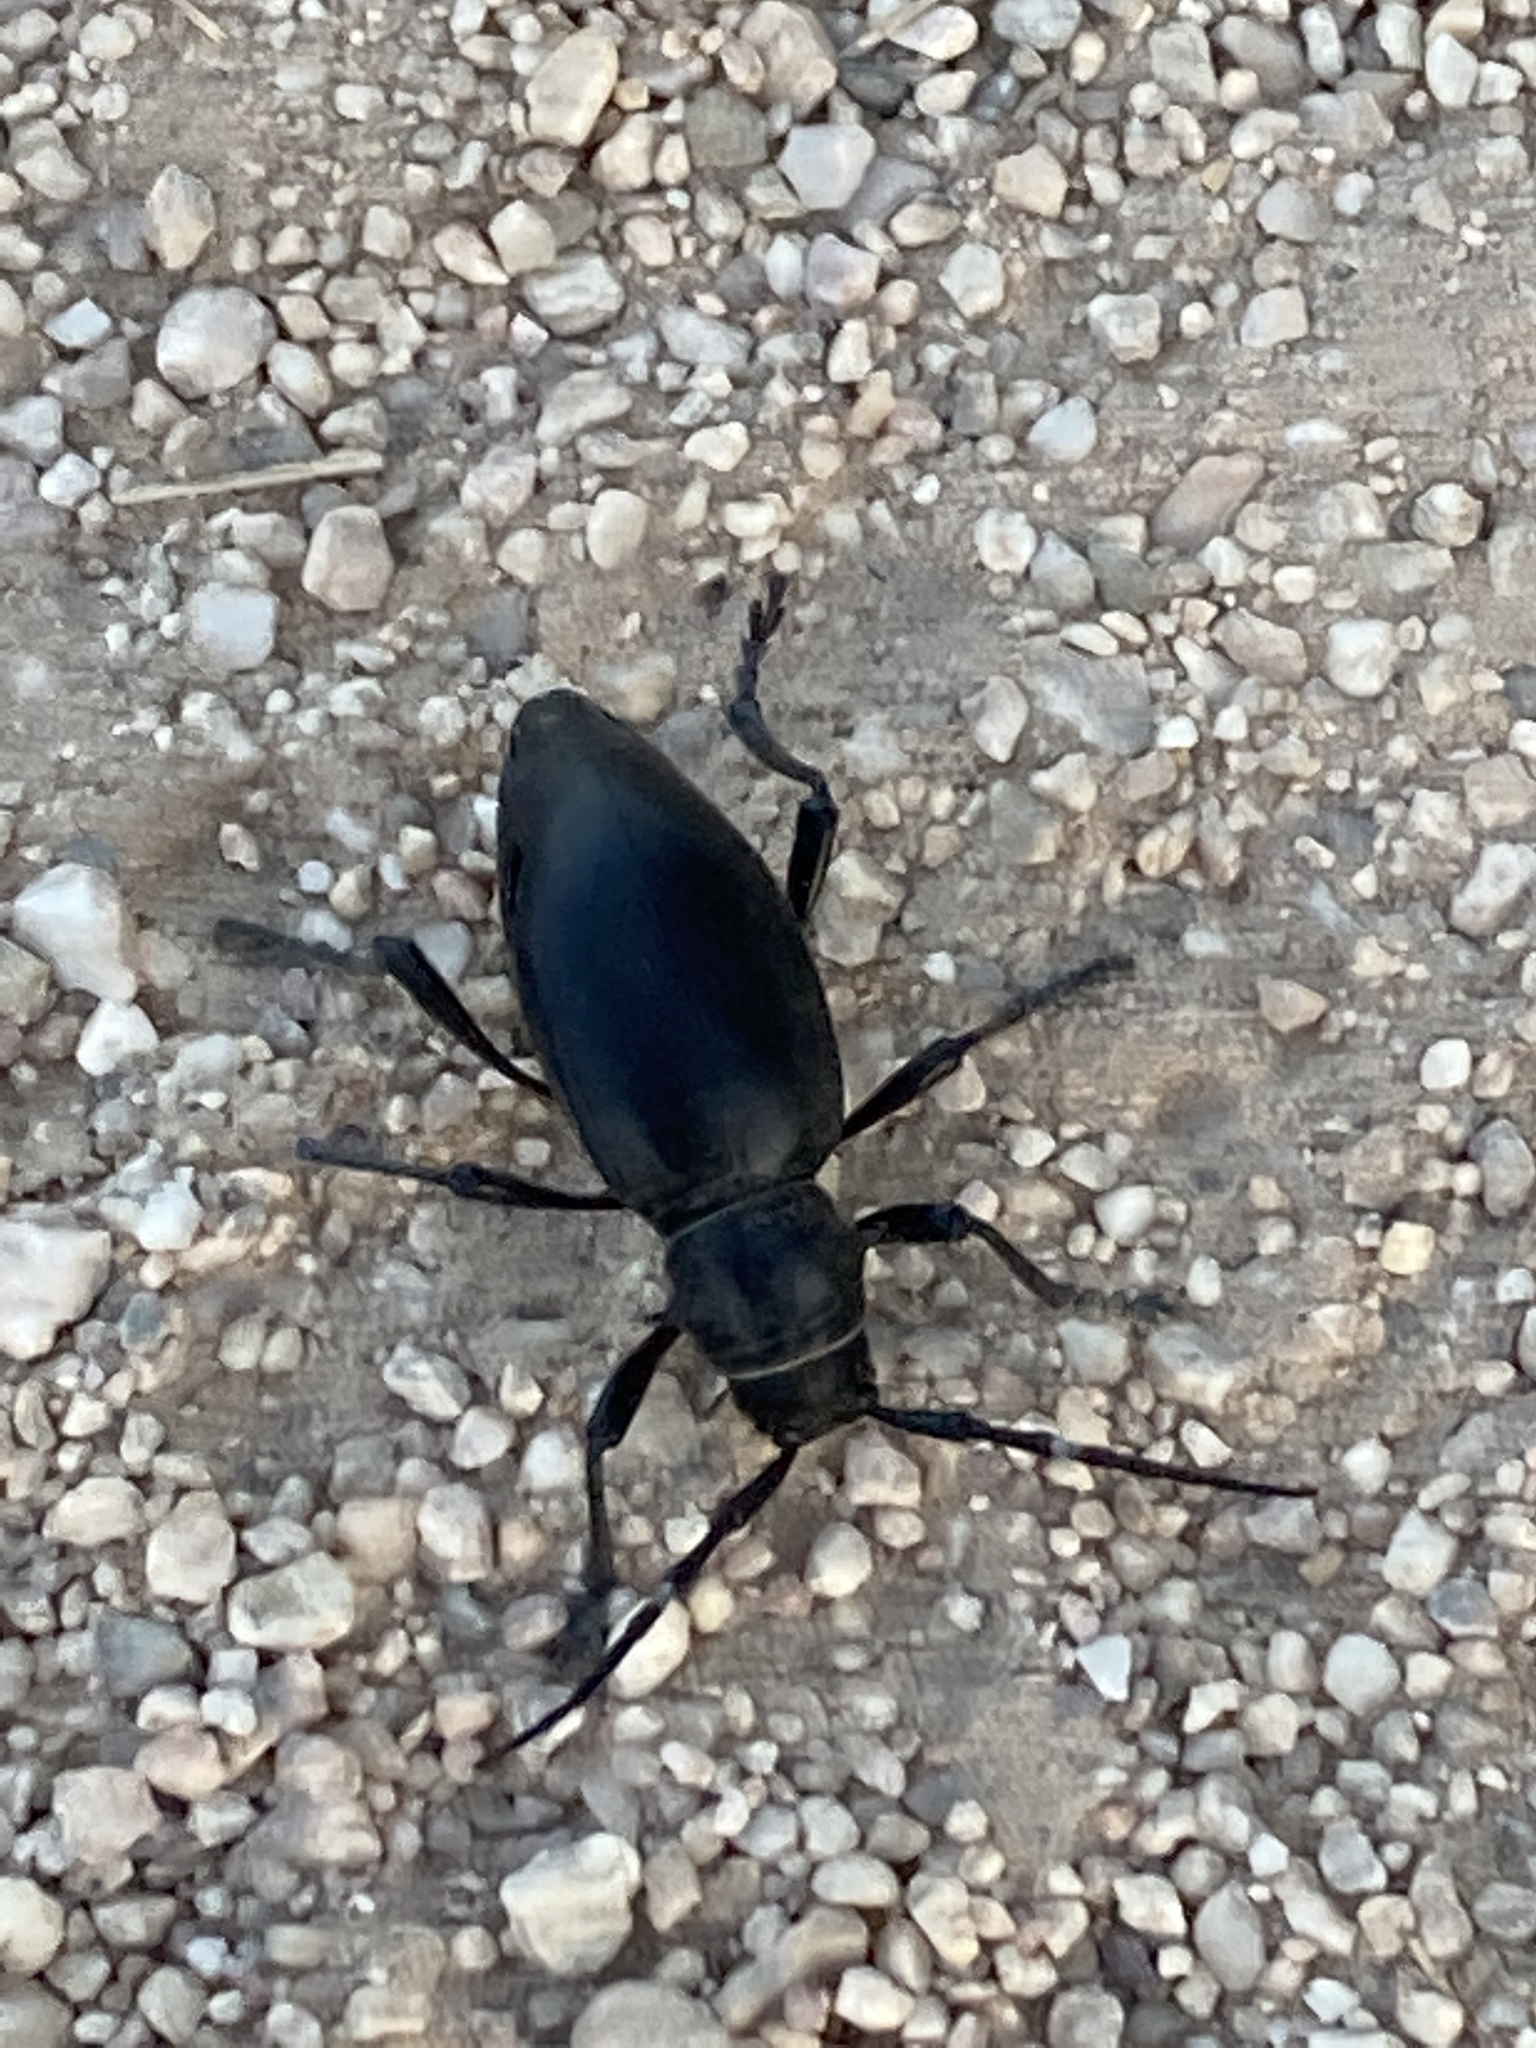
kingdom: Animalia
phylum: Arthropoda
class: Insecta
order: Coleoptera
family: Cerambycidae
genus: Moneilema
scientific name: Moneilema gigas
